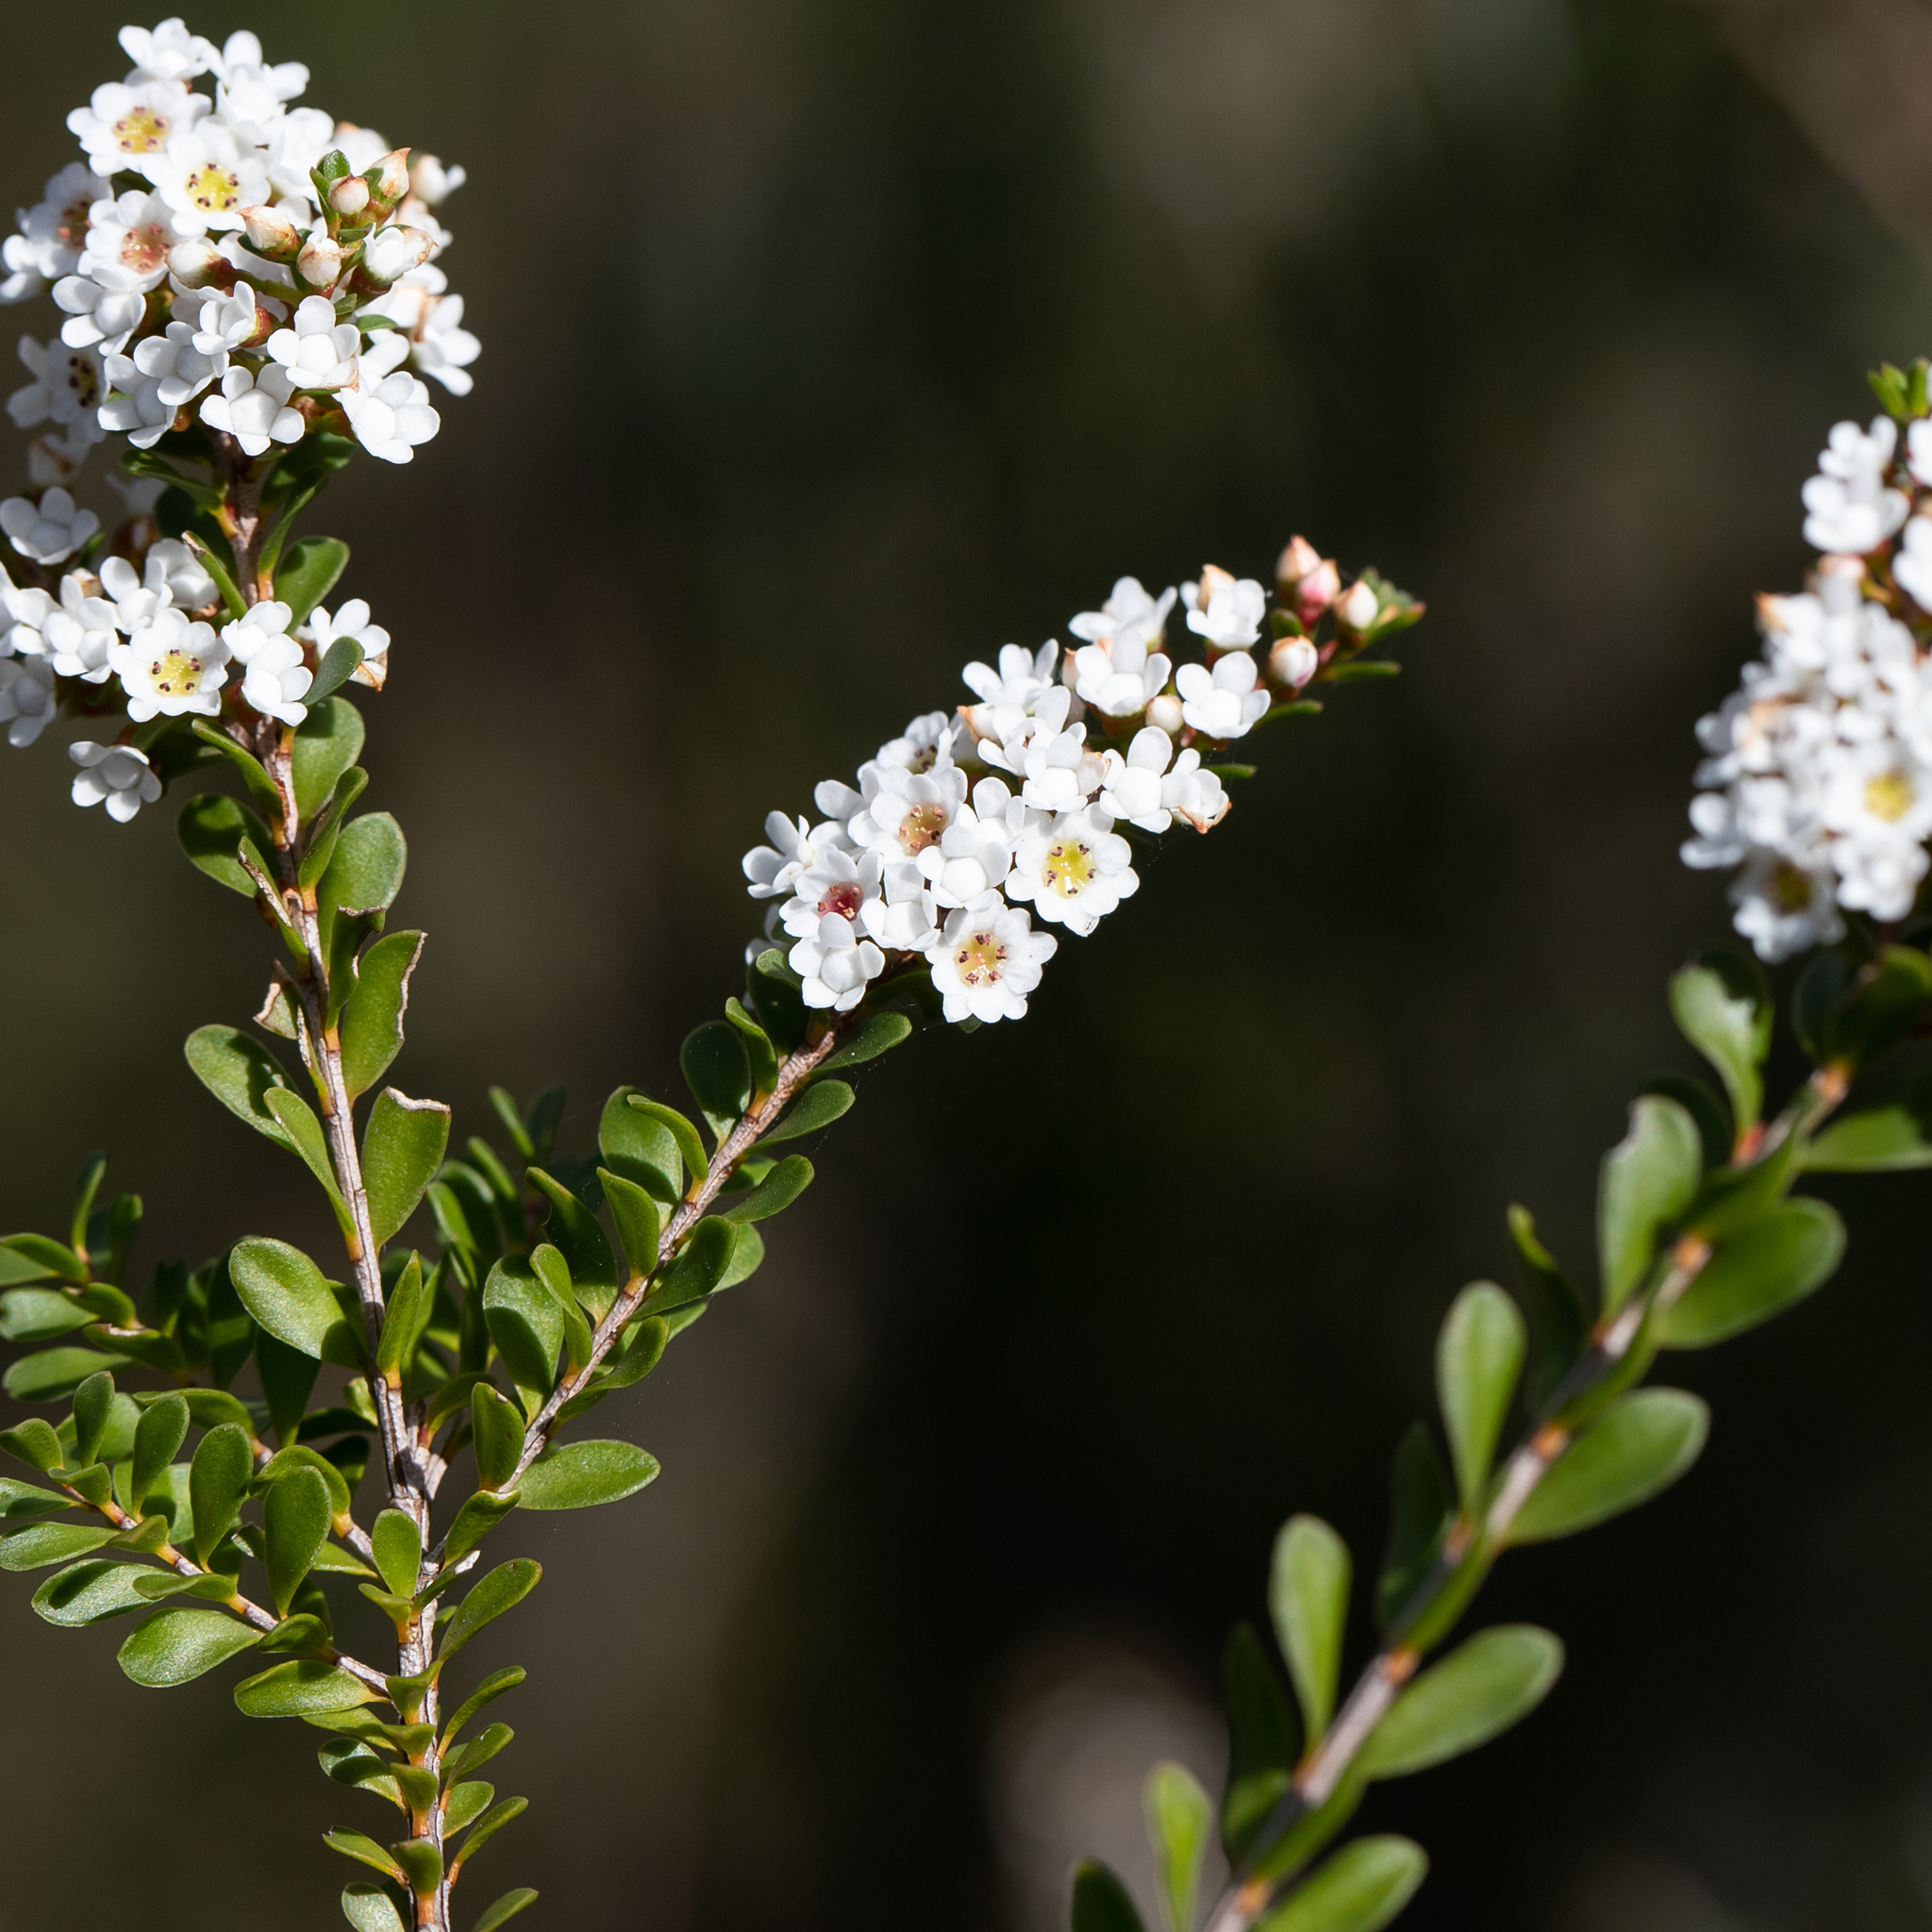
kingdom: Plantae
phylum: Tracheophyta
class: Magnoliopsida
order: Myrtales
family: Myrtaceae
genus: Thryptomene
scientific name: Thryptomene calycina
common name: Grampians thryptomene
